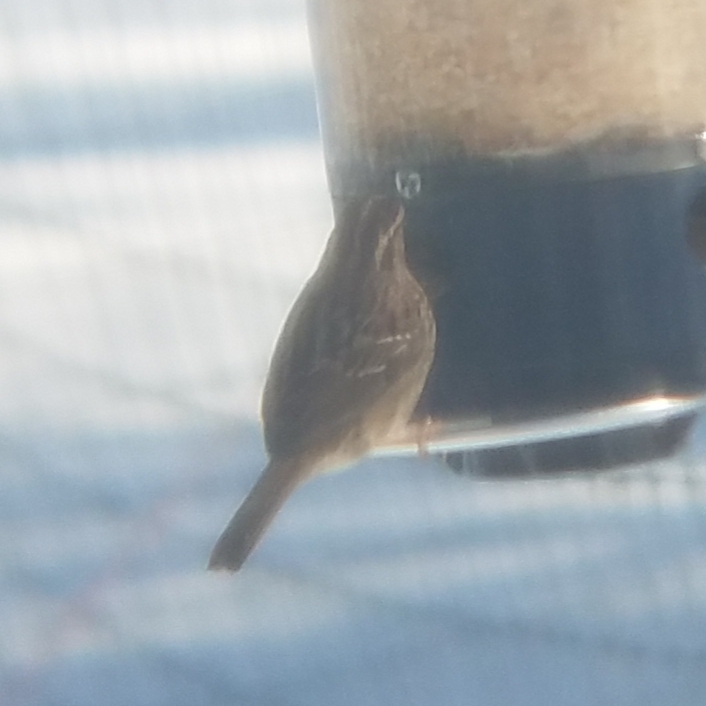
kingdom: Animalia
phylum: Chordata
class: Aves
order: Passeriformes
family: Passerellidae
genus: Zonotrichia
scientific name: Zonotrichia albicollis
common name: White-throated sparrow
